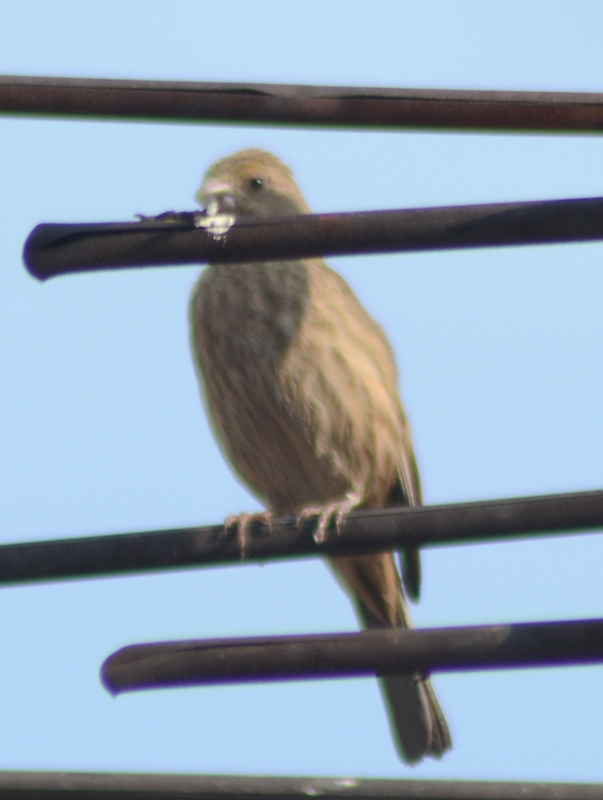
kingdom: Animalia
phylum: Chordata
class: Aves
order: Passeriformes
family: Fringillidae
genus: Haemorhous
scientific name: Haemorhous mexicanus
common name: House finch
